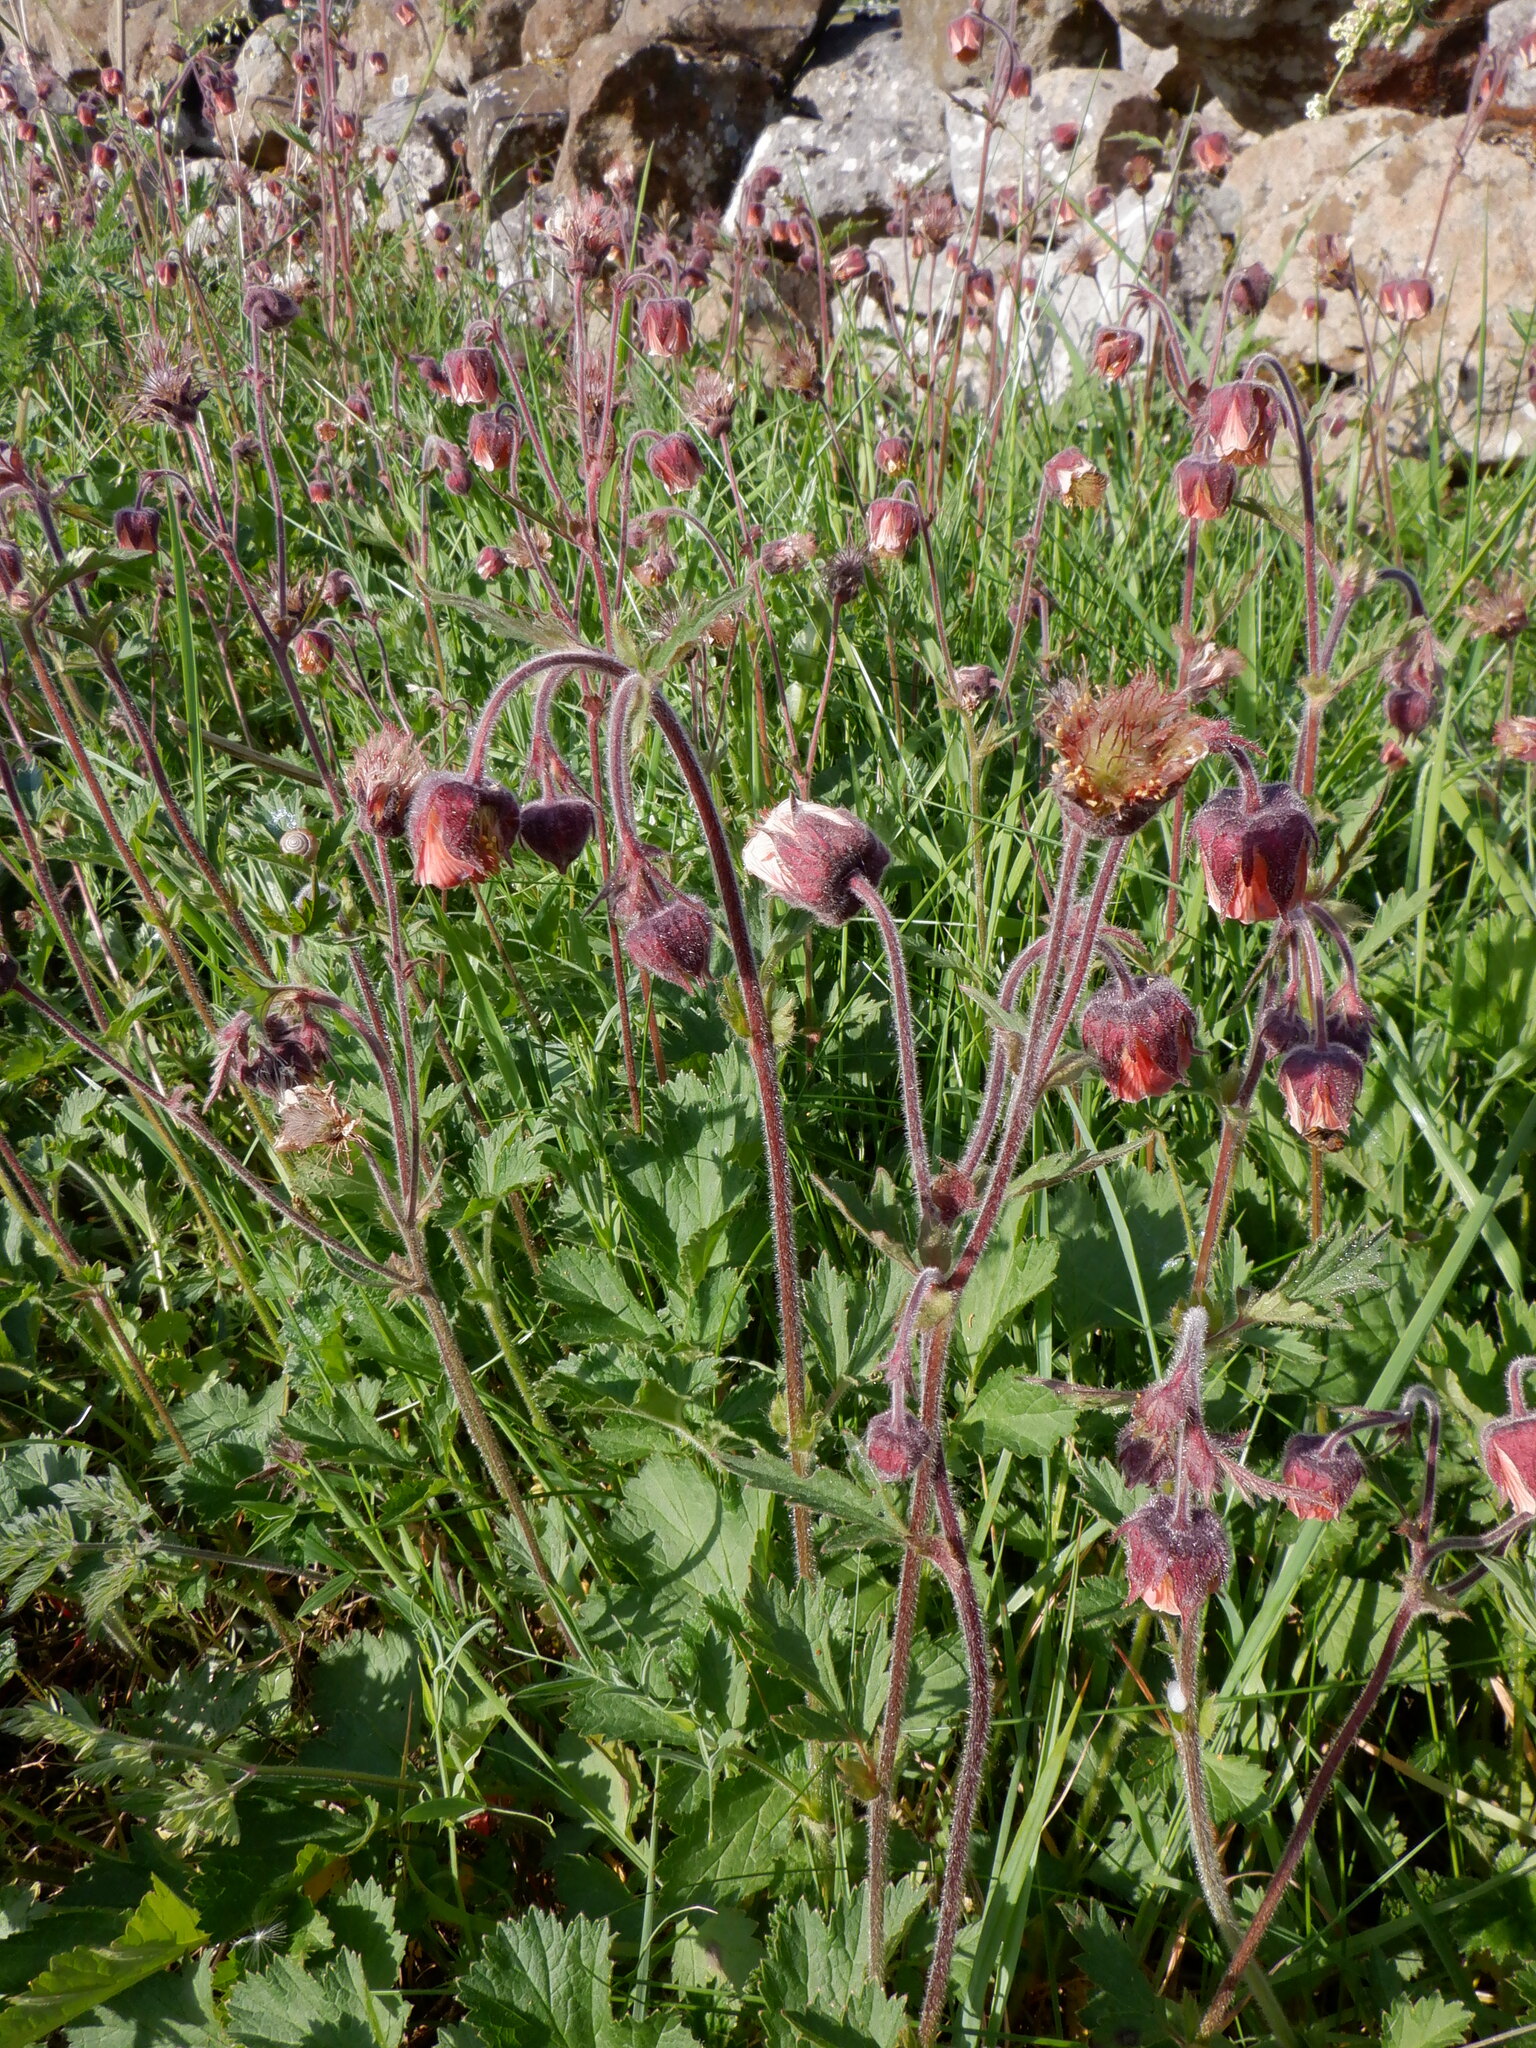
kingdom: Plantae
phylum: Tracheophyta
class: Magnoliopsida
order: Rosales
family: Rosaceae
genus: Geum
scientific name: Geum rivale
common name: Water avens
